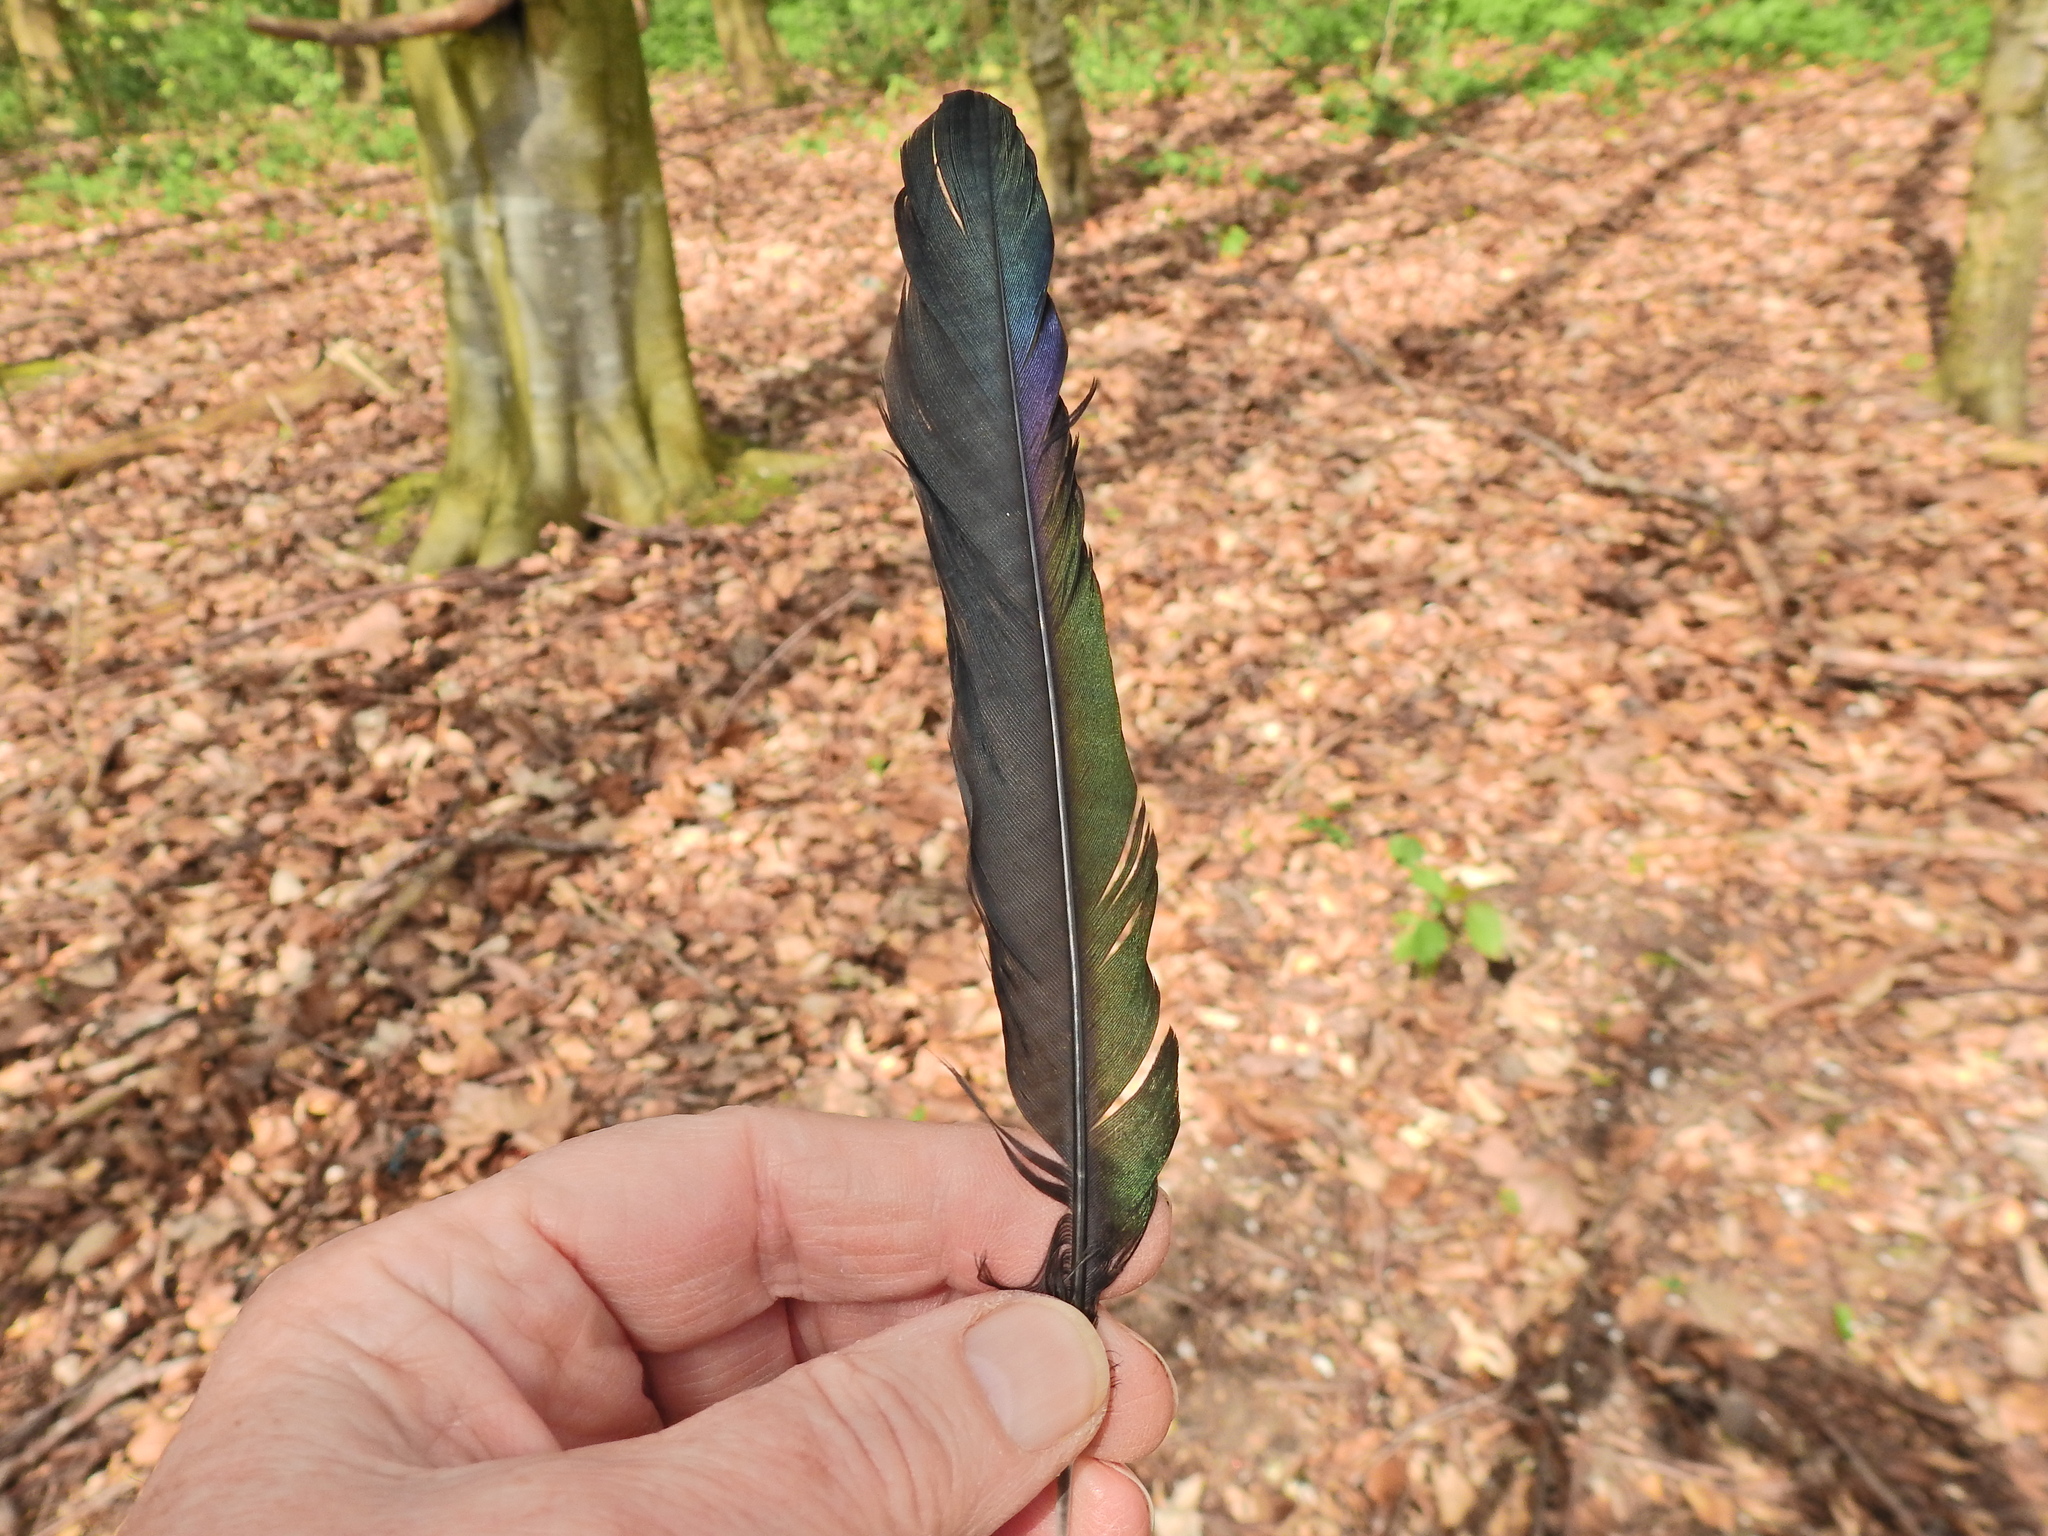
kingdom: Animalia
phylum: Chordata
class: Aves
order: Passeriformes
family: Corvidae
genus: Pica
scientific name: Pica pica
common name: Eurasian magpie
